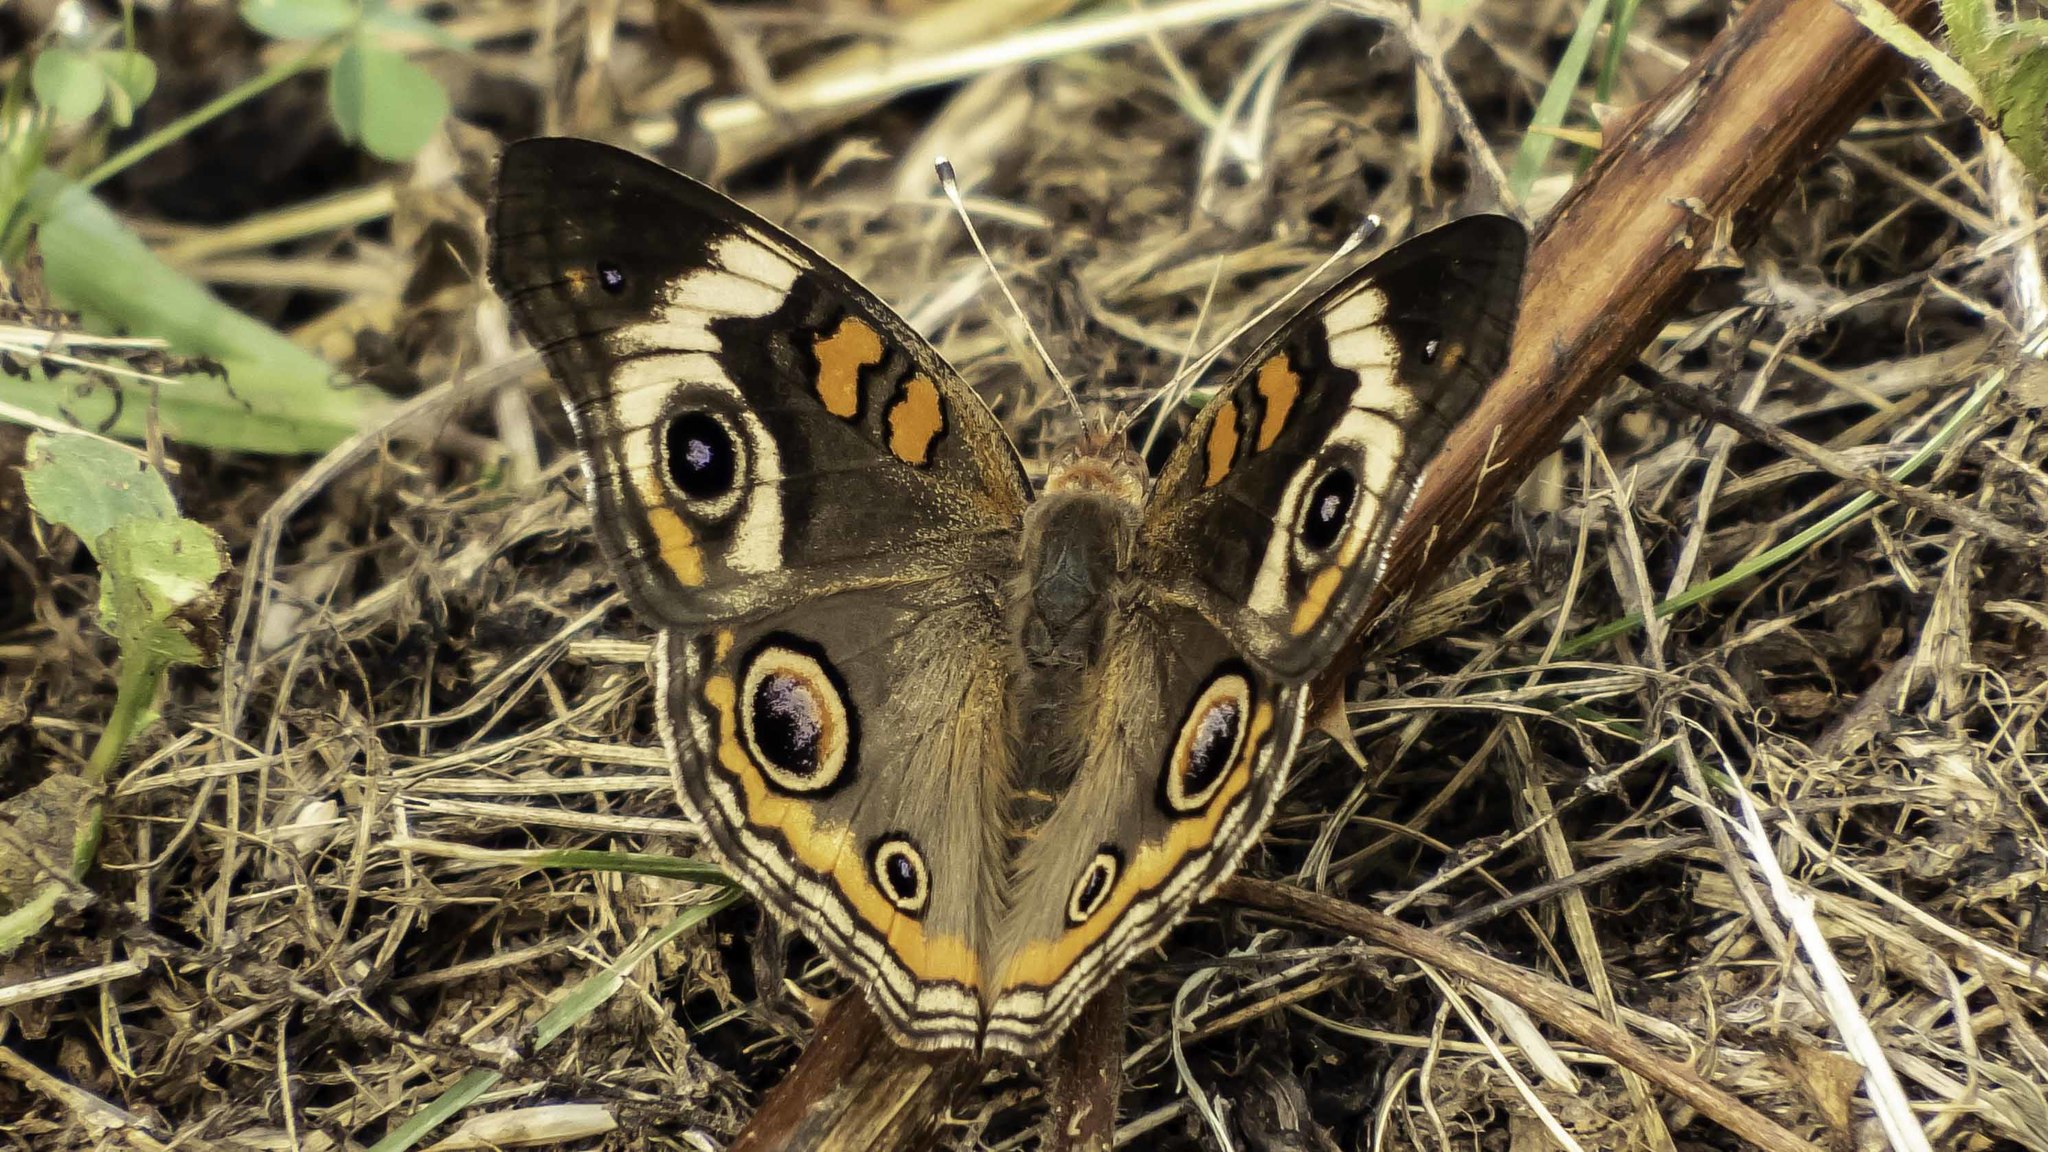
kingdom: Animalia
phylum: Arthropoda
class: Insecta
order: Lepidoptera
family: Nymphalidae
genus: Junonia
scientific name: Junonia coenia
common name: Common buckeye
